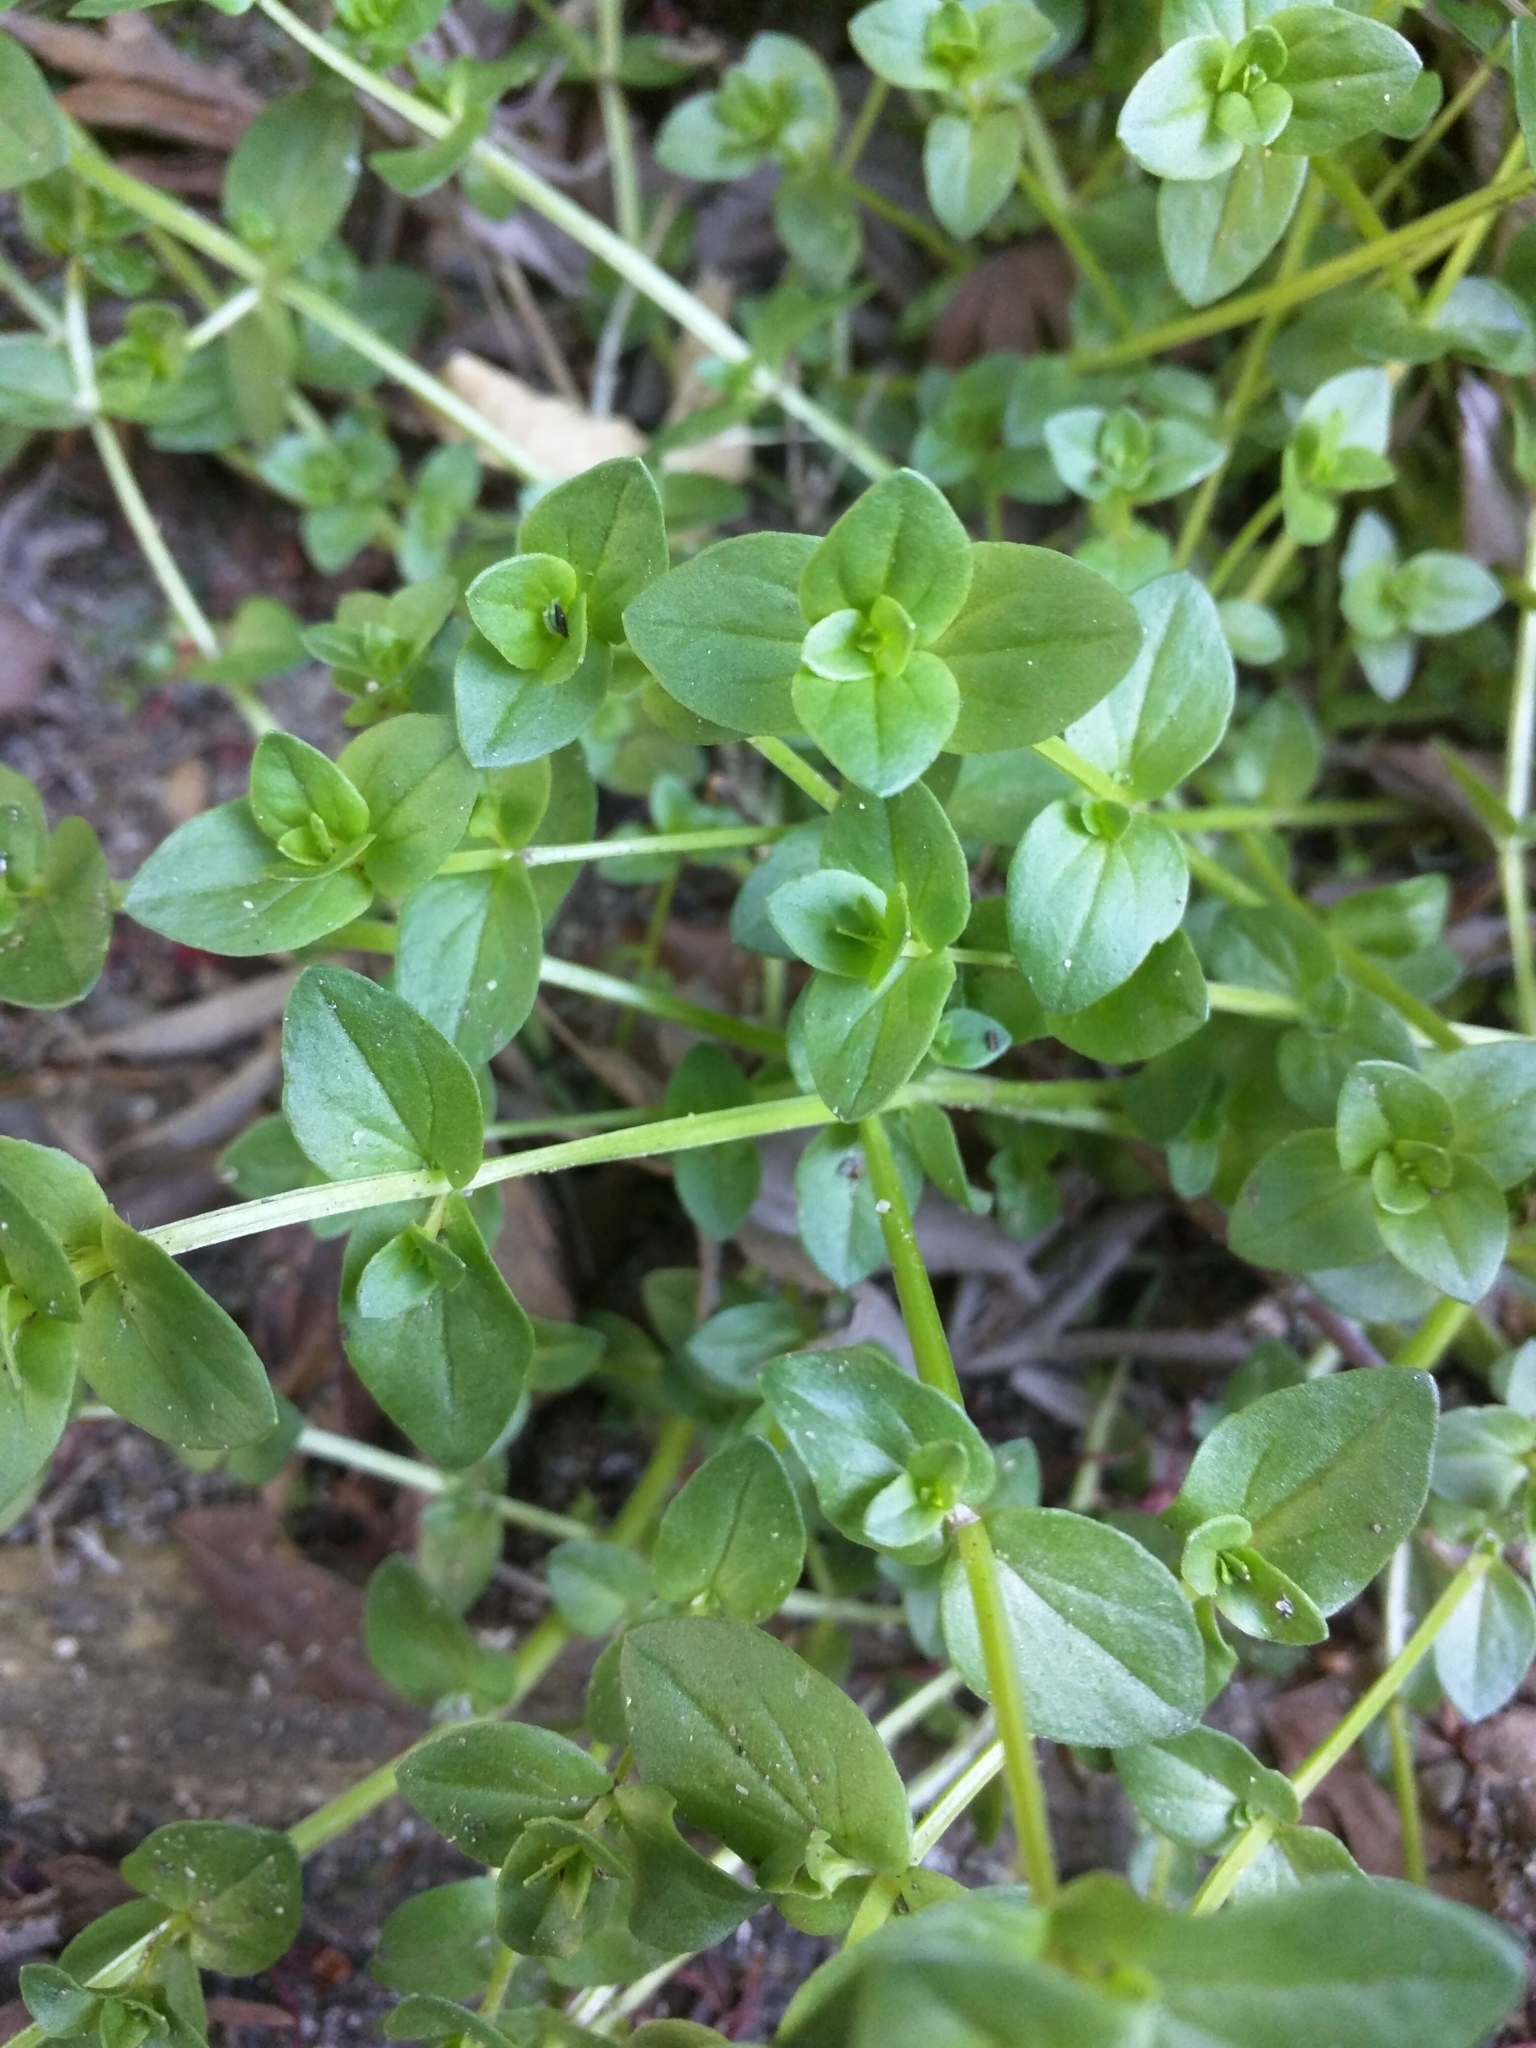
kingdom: Plantae
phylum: Tracheophyta
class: Magnoliopsida
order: Ericales
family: Primulaceae
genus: Lysimachia
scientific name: Lysimachia arvensis
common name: Scarlet pimpernel
